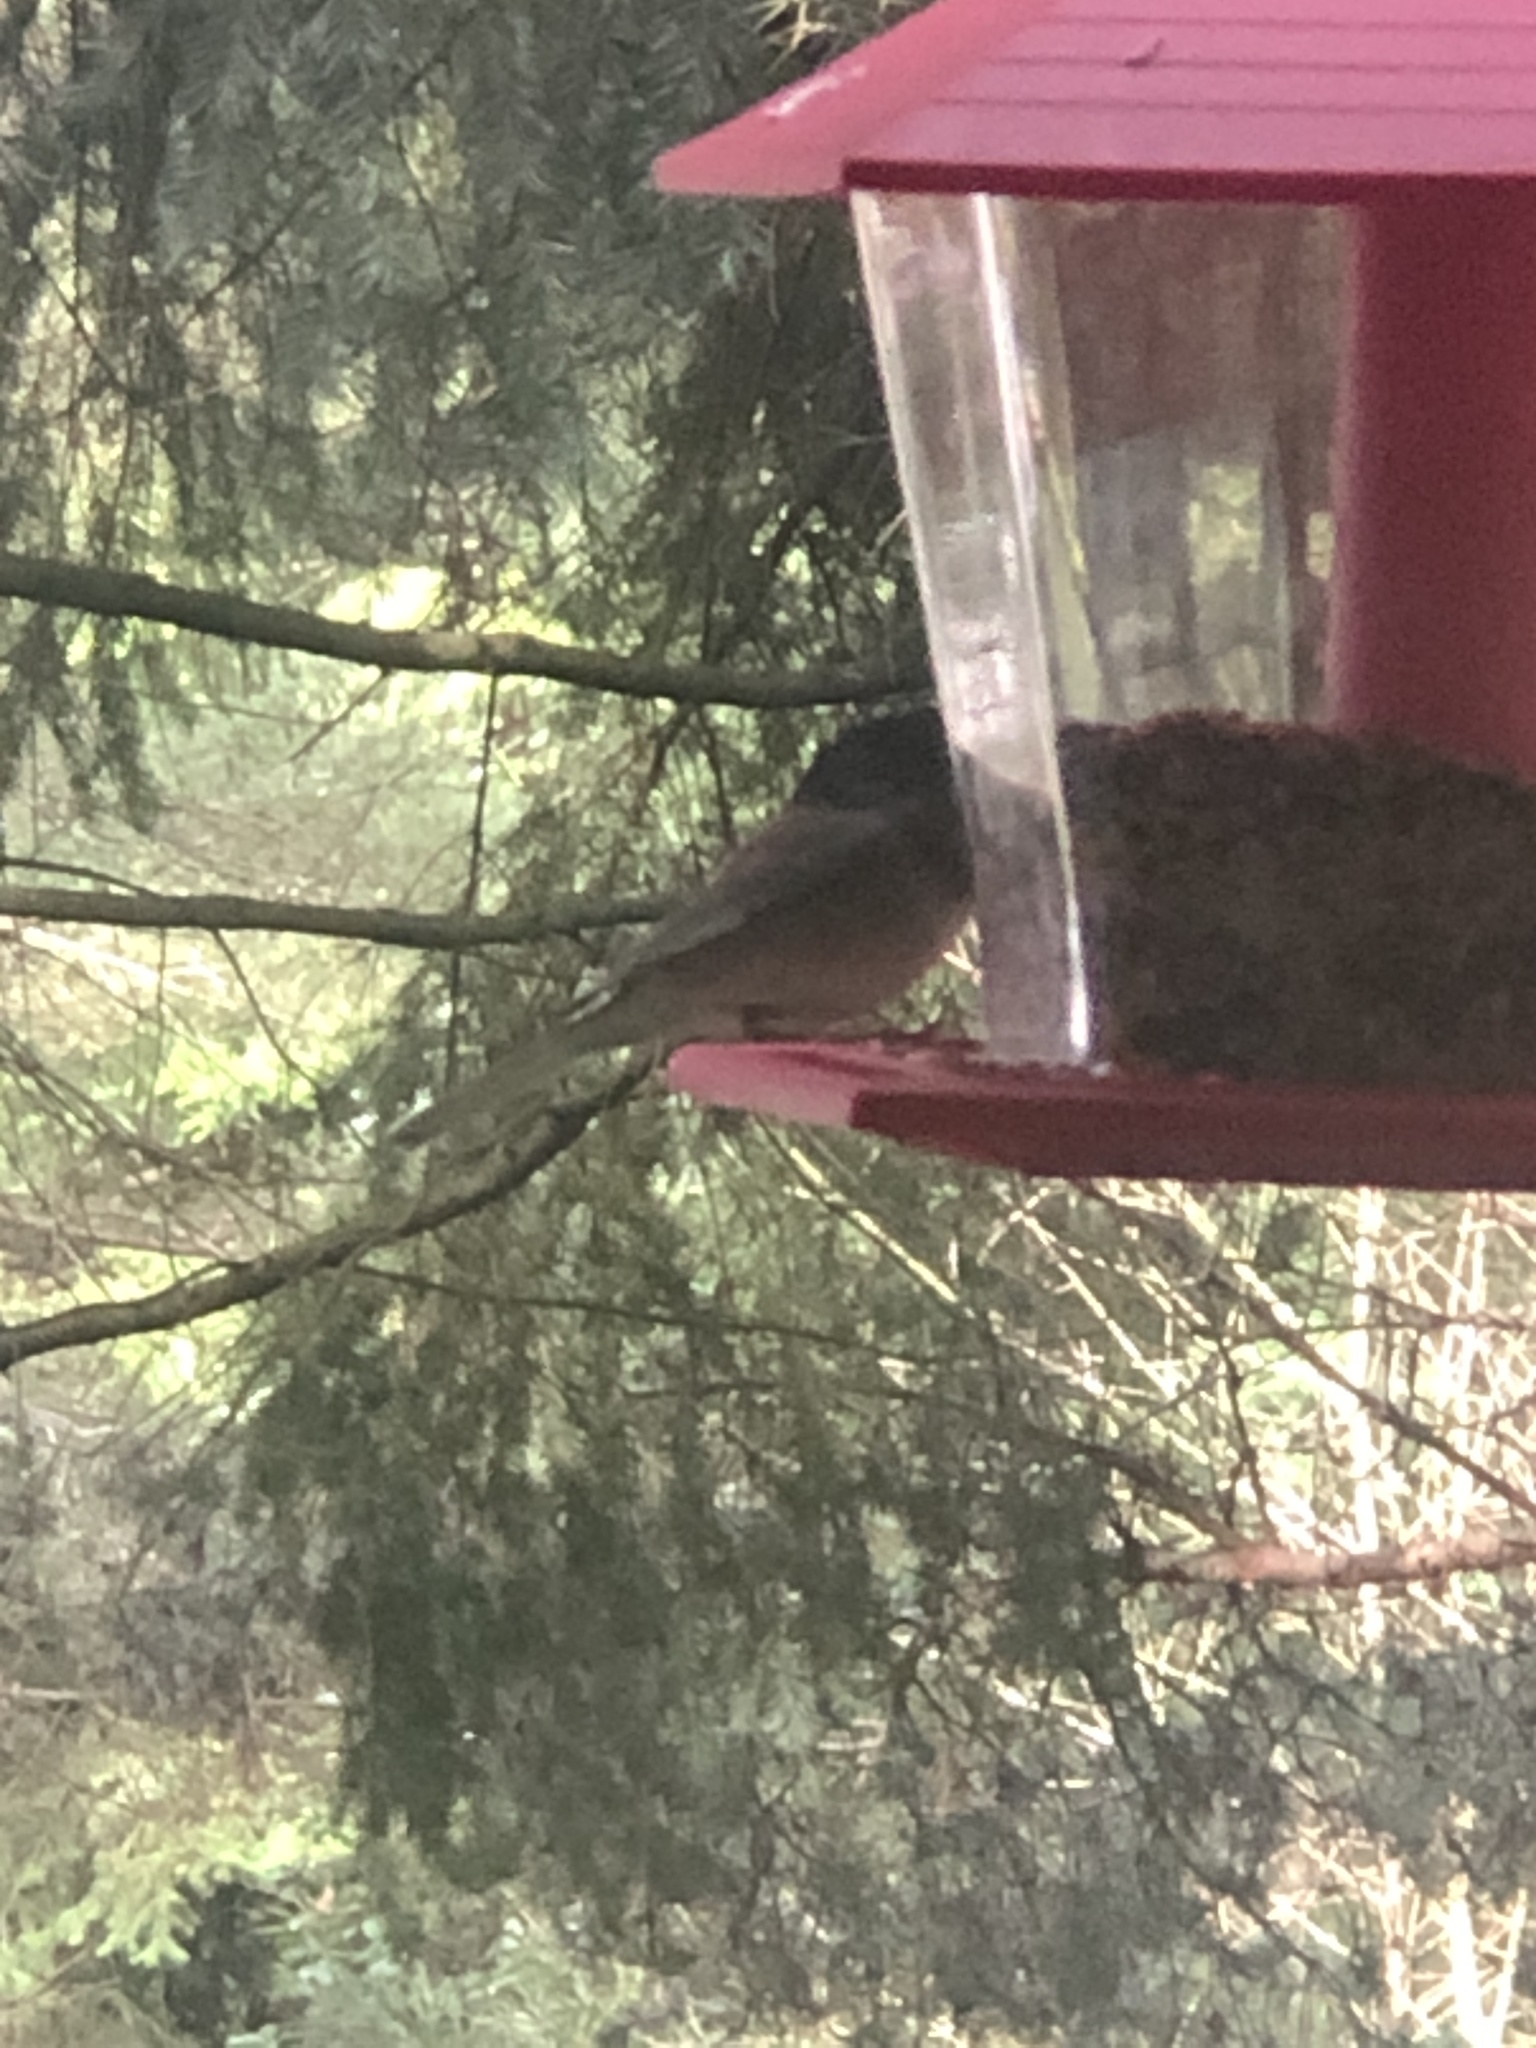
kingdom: Animalia
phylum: Chordata
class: Aves
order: Passeriformes
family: Passerellidae
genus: Junco
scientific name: Junco hyemalis
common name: Dark-eyed junco
